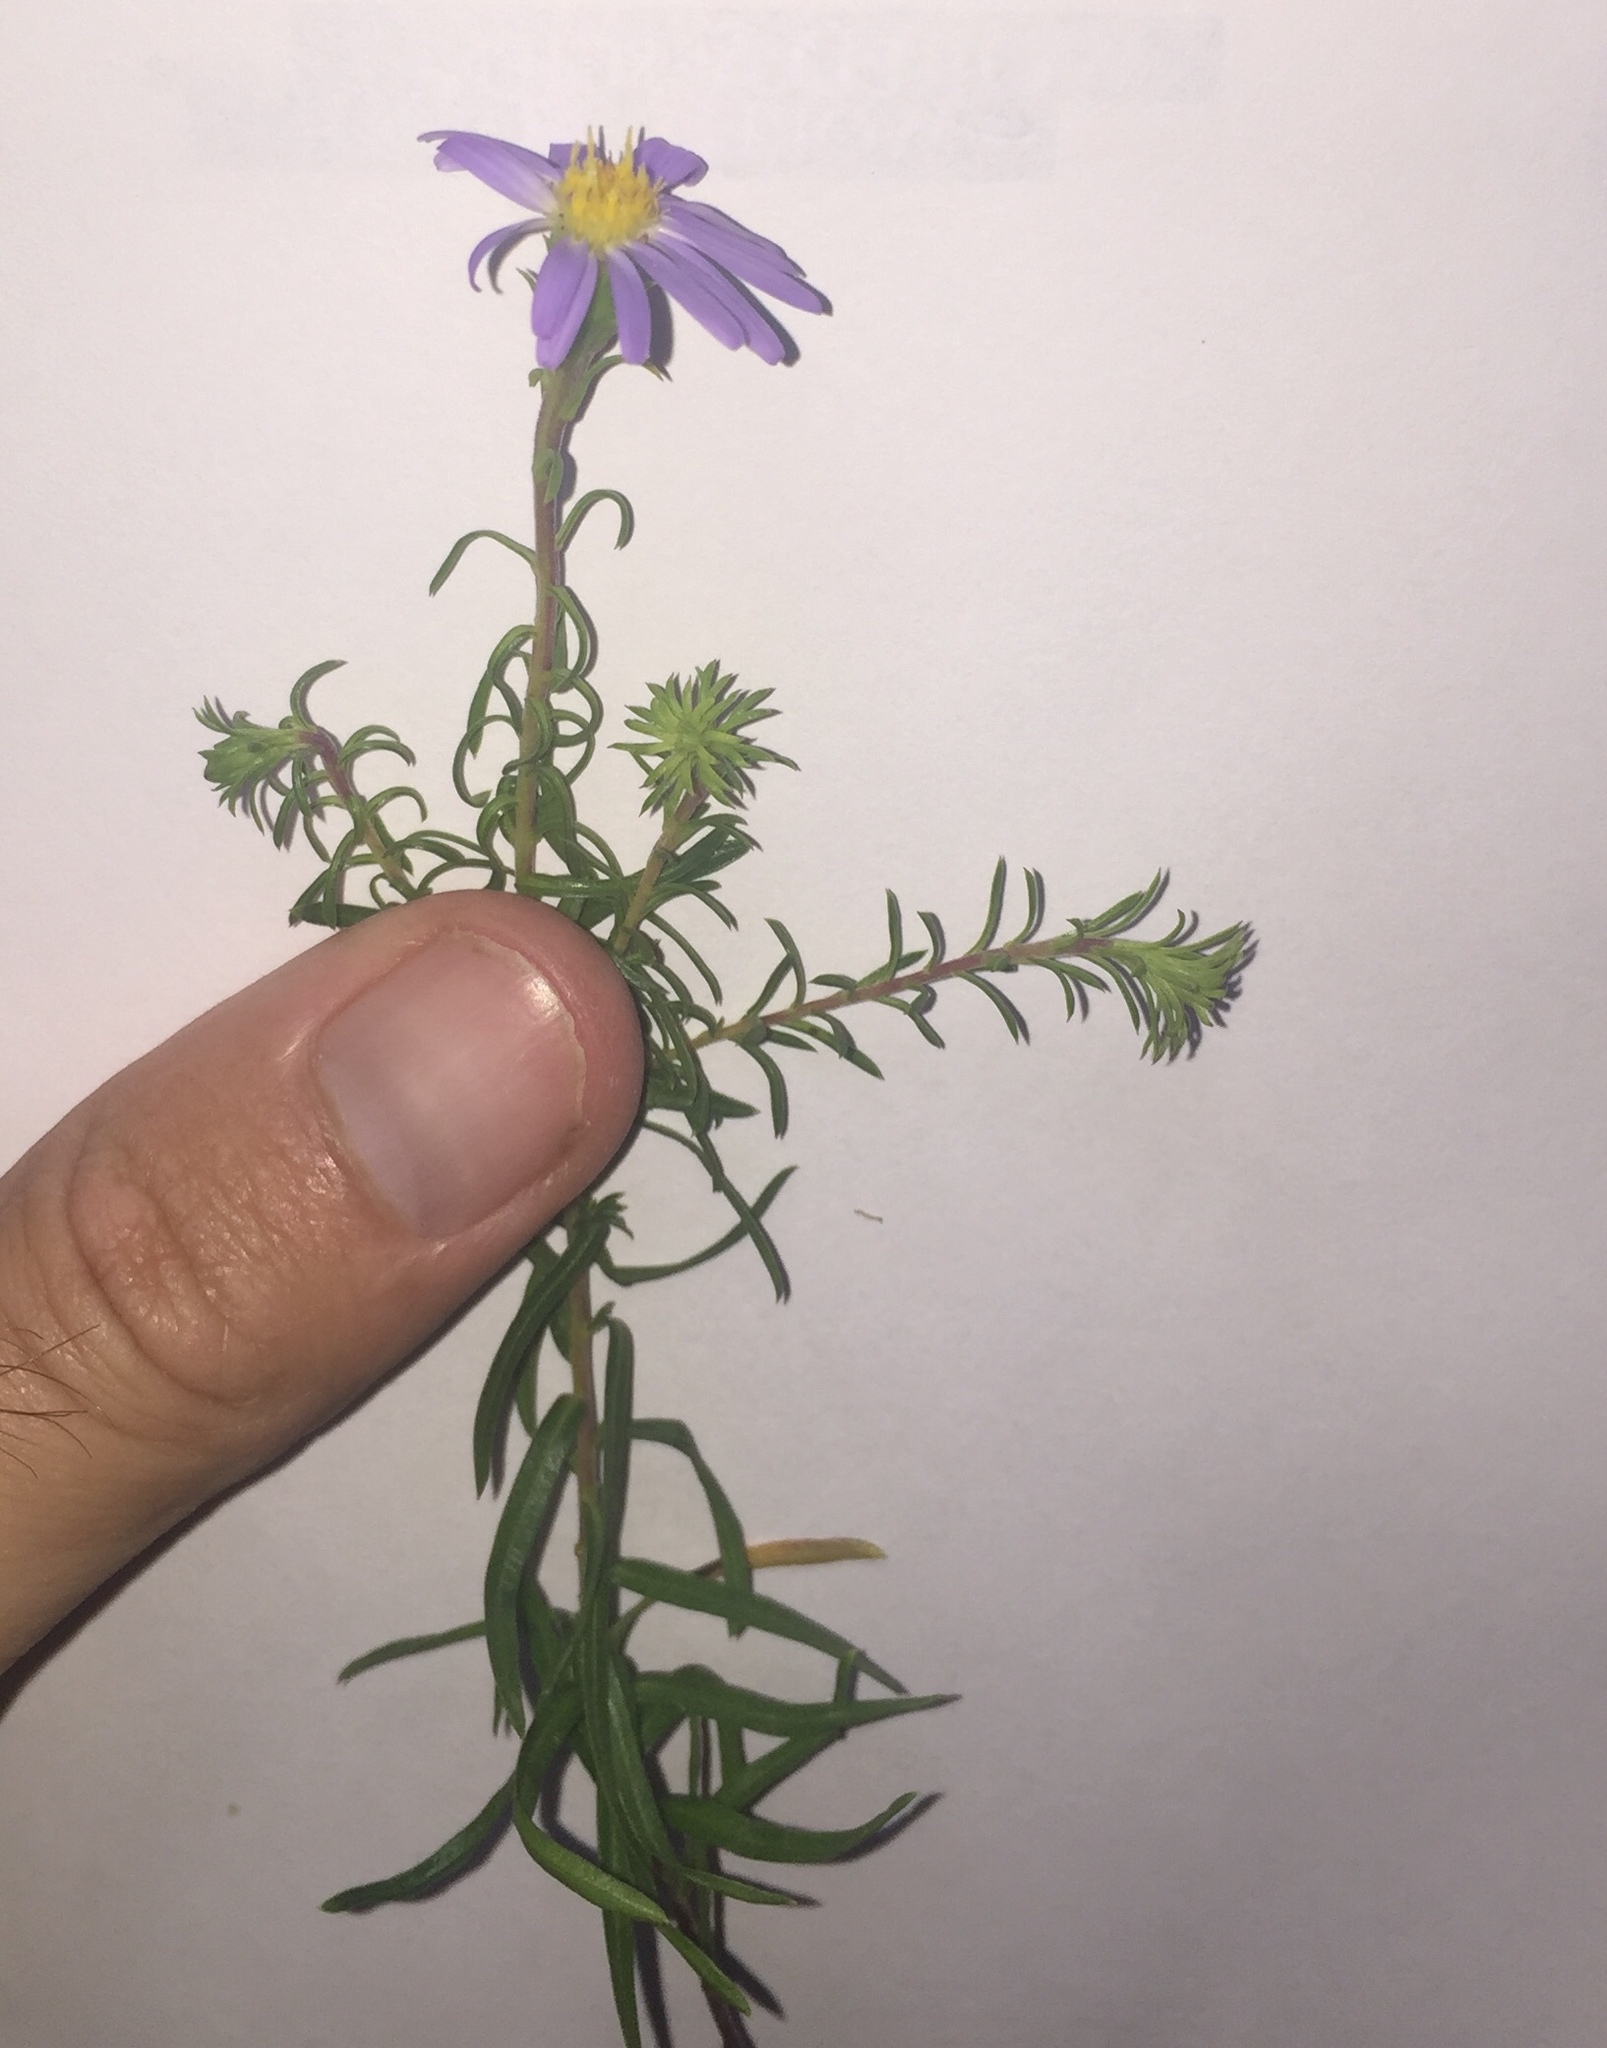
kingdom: Plantae
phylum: Tracheophyta
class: Magnoliopsida
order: Asterales
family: Asteraceae
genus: Ionactis
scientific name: Ionactis linariifolia
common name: Flax-leaf aster
